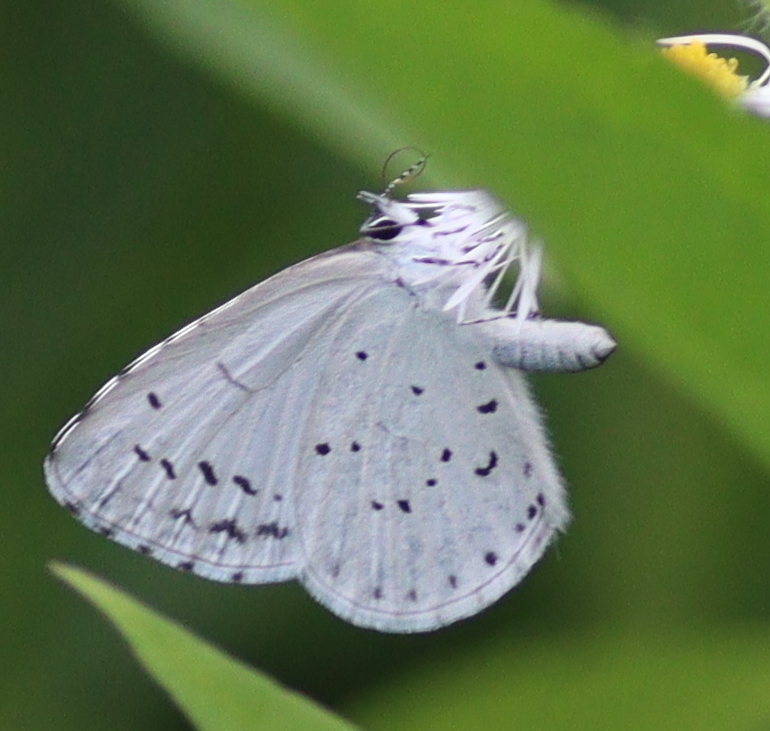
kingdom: Animalia
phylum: Arthropoda
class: Insecta
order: Lepidoptera
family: Lycaenidae
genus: Celastrina
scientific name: Celastrina argiolus
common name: Holly blue
